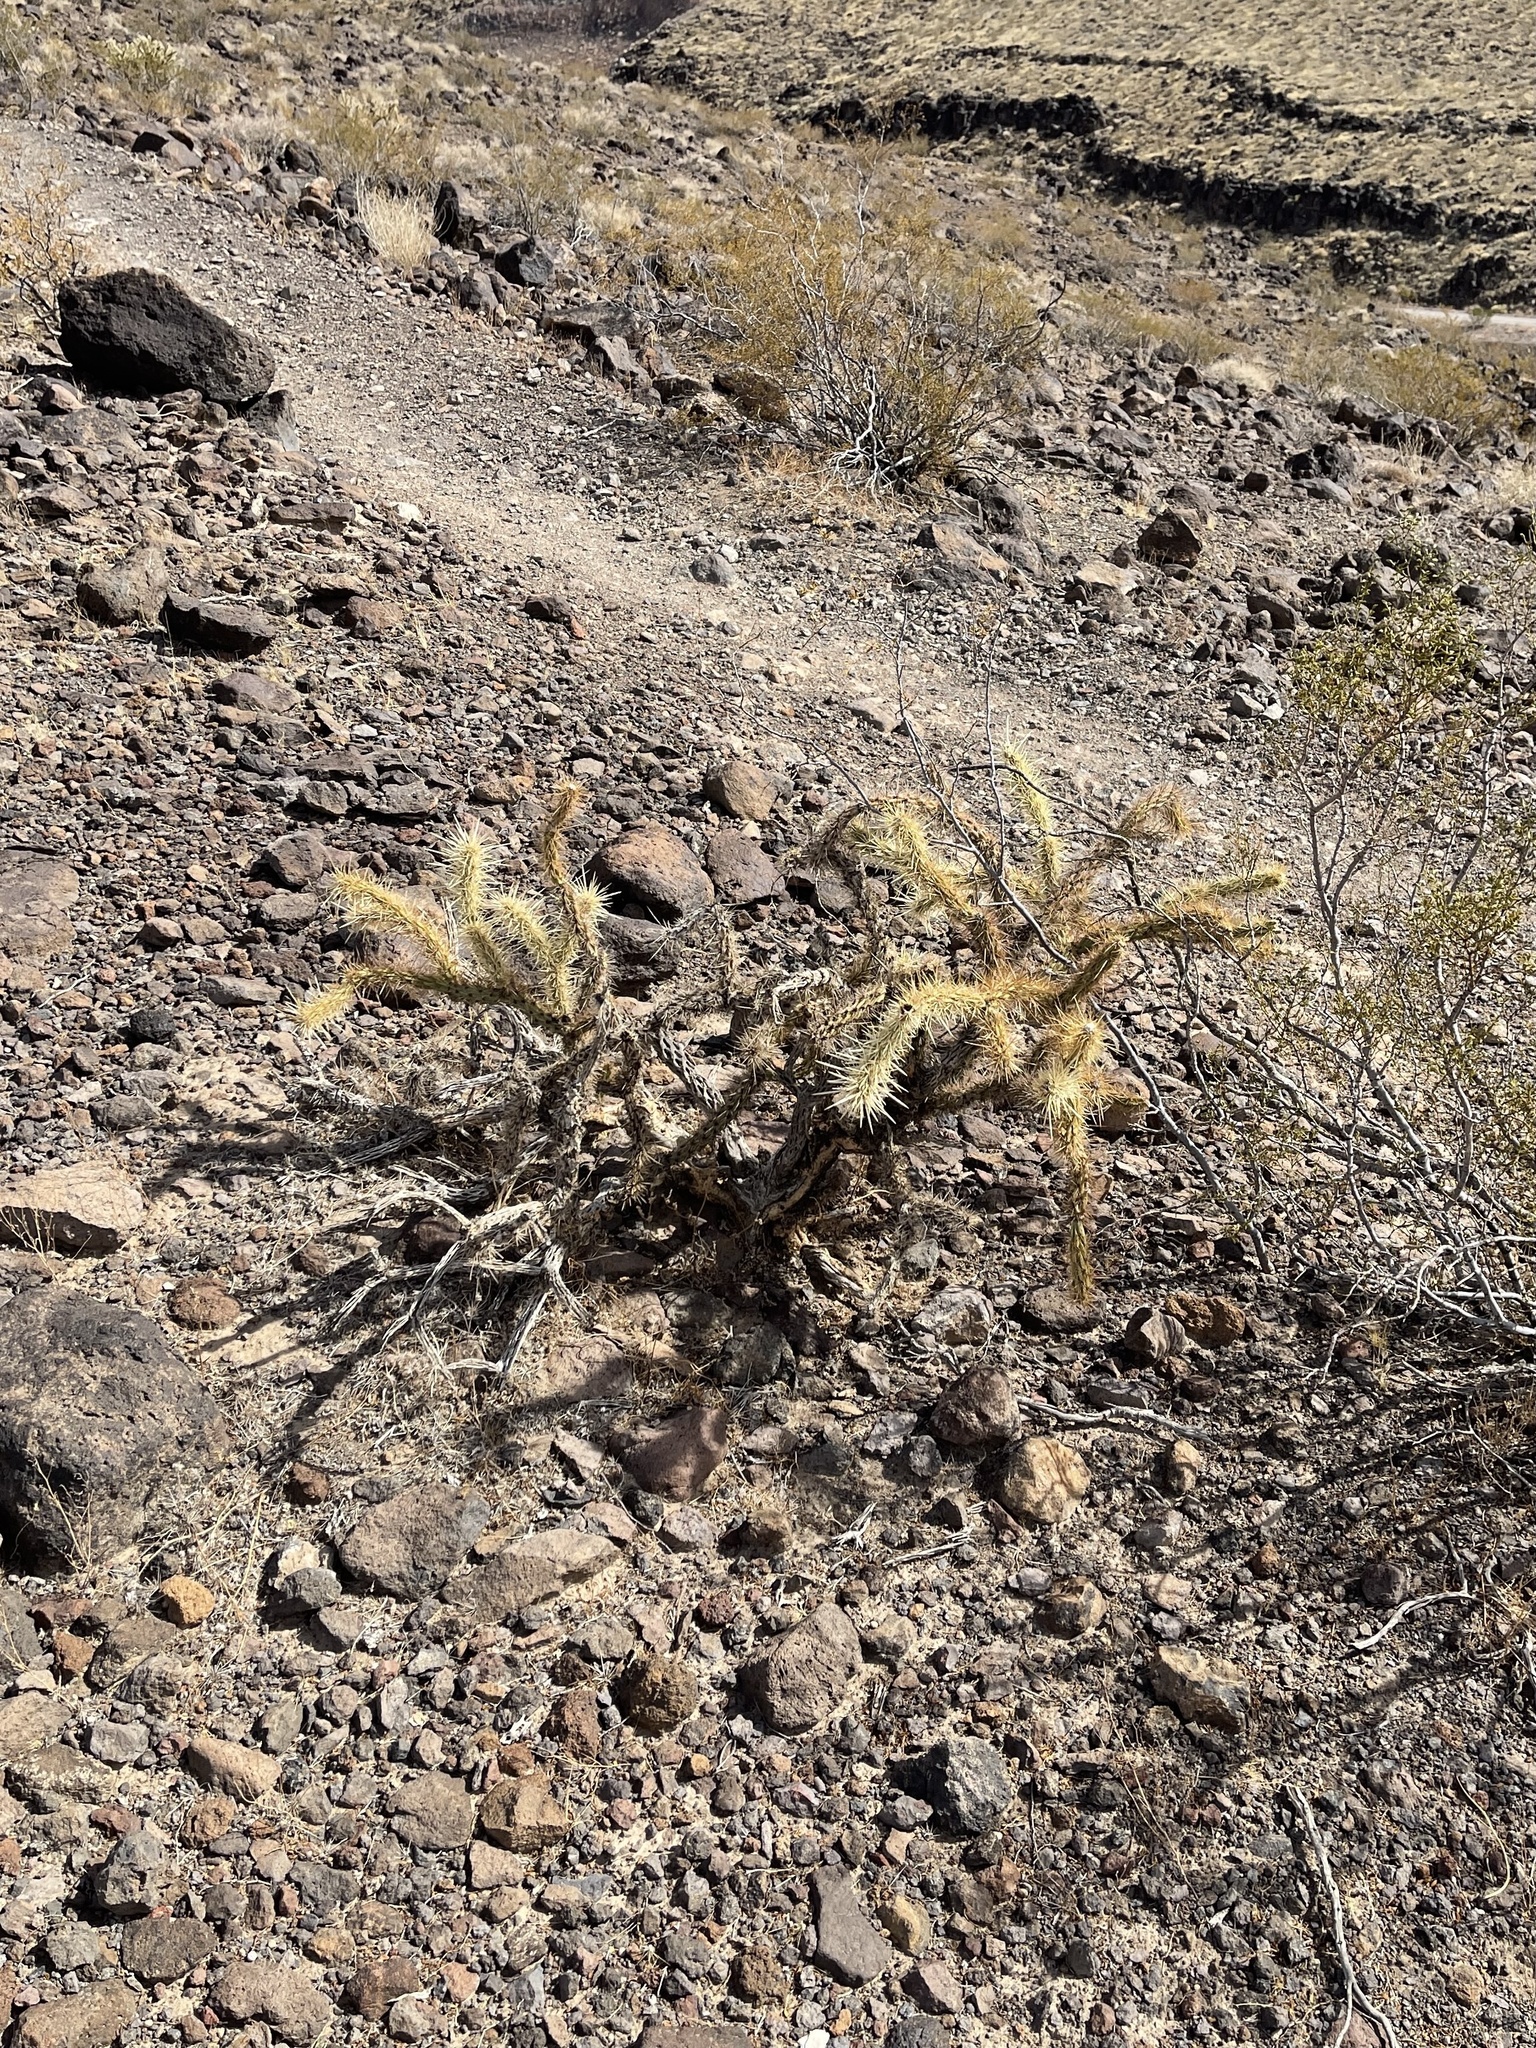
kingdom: Plantae
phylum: Tracheophyta
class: Magnoliopsida
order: Caryophyllales
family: Cactaceae
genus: Cylindropuntia
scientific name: Cylindropuntia acanthocarpa
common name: Buckhorn cholla
